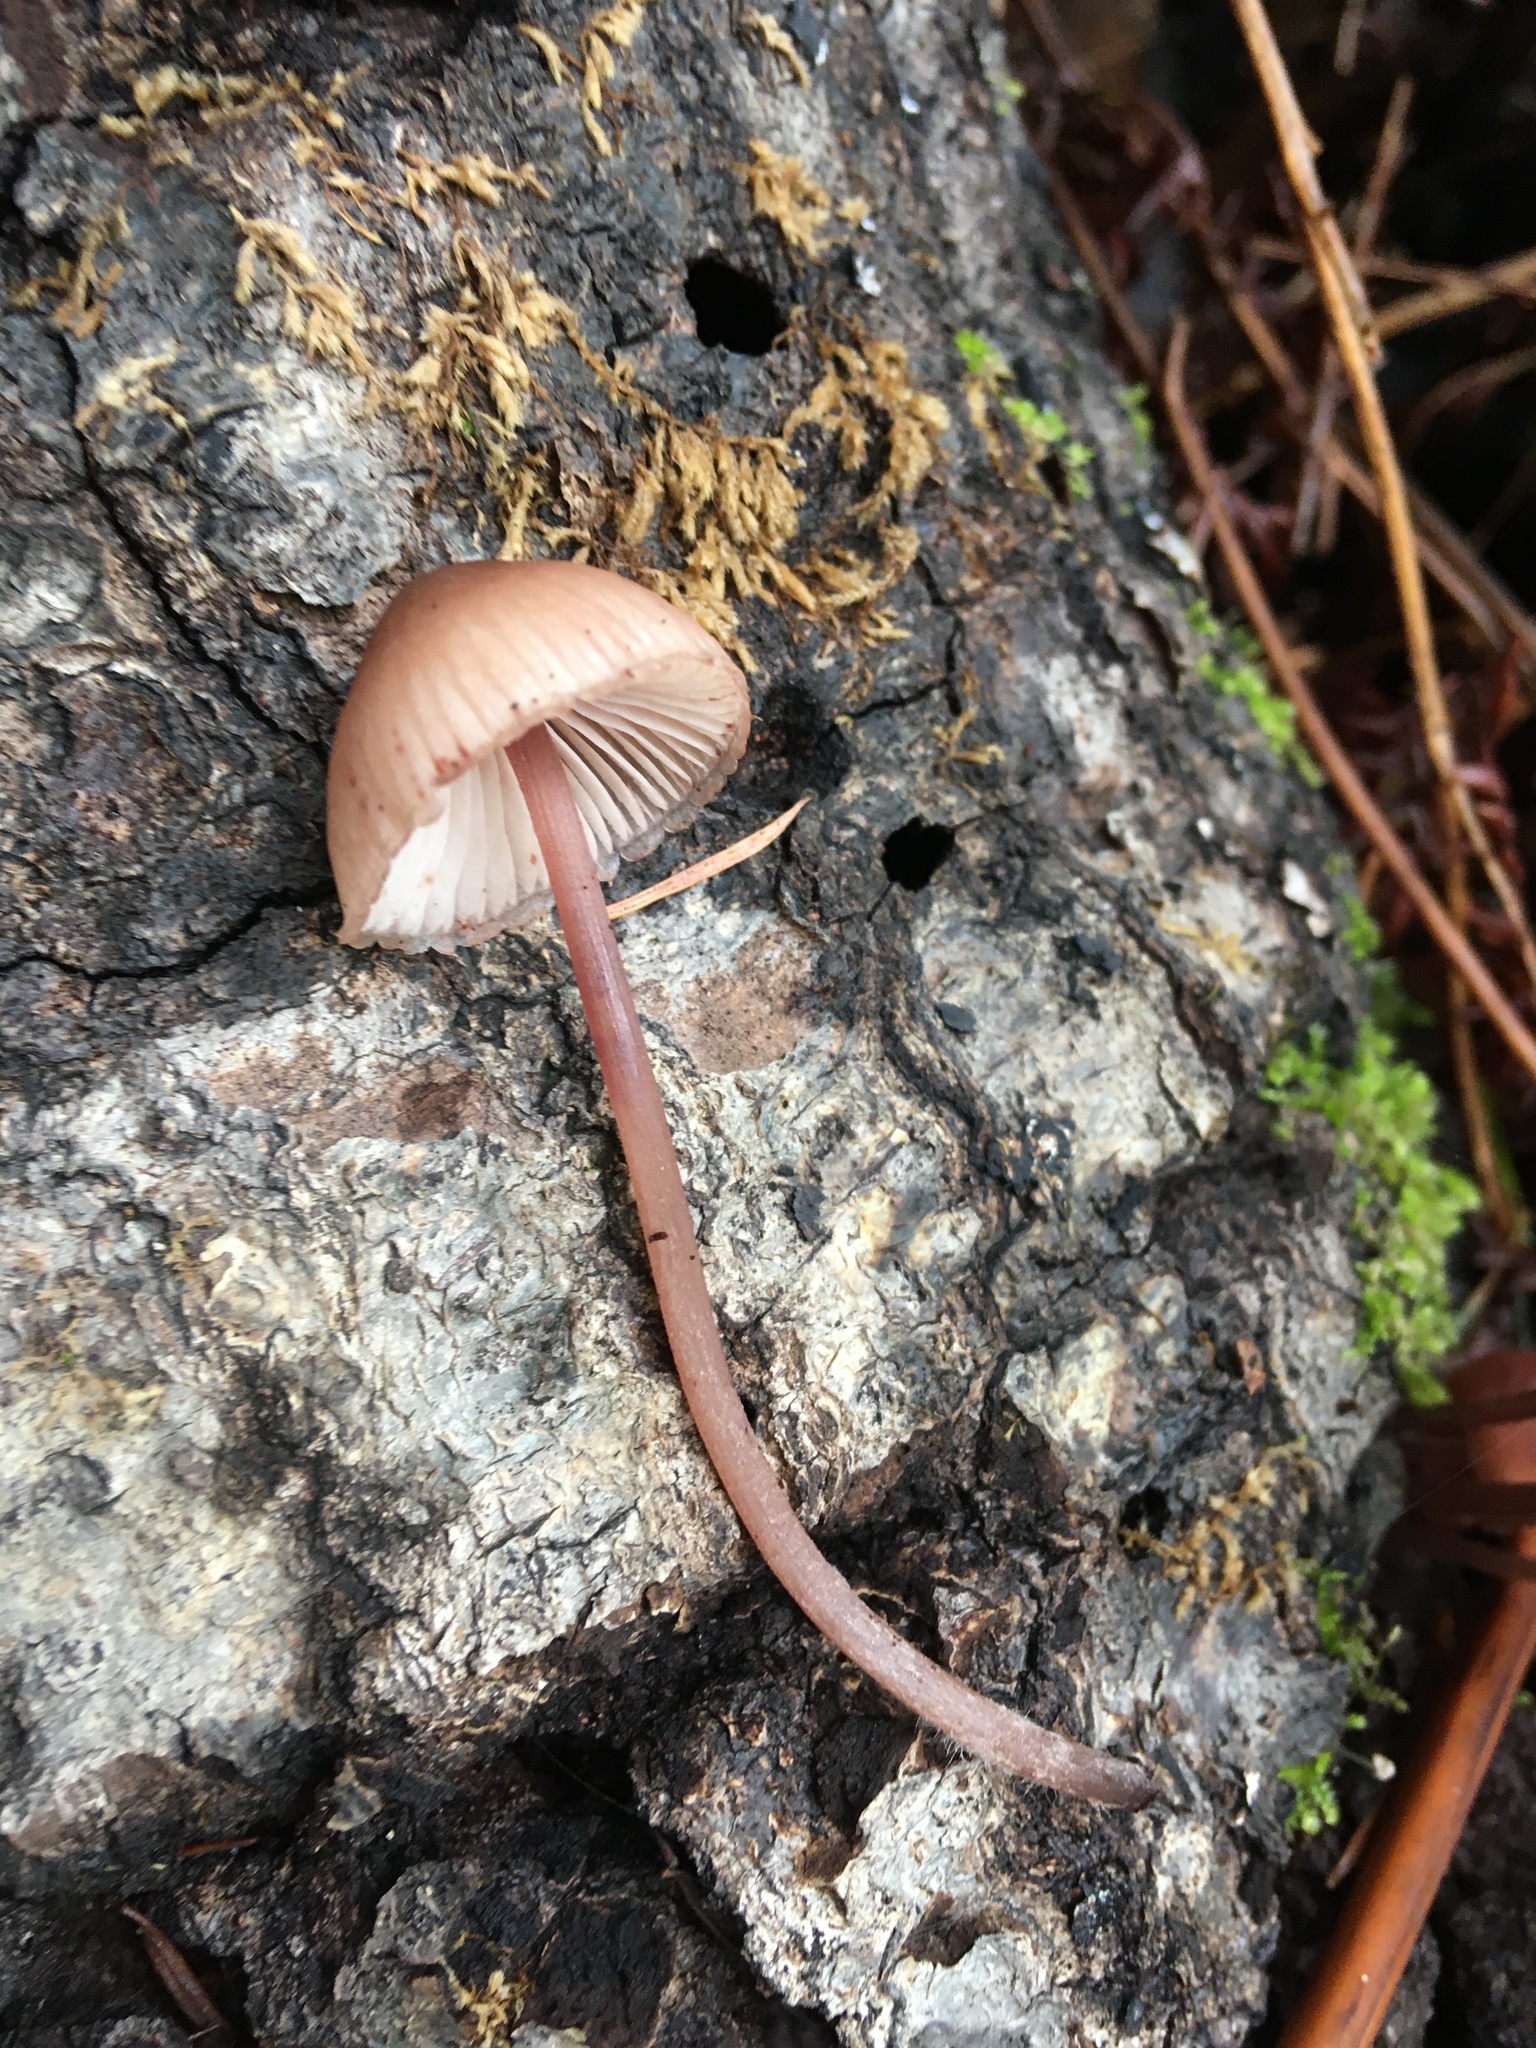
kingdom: Fungi
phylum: Basidiomycota
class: Agaricomycetes
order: Agaricales
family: Mycenaceae
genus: Mycena
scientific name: Mycena haematopus
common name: Burgundydrop bonnet
